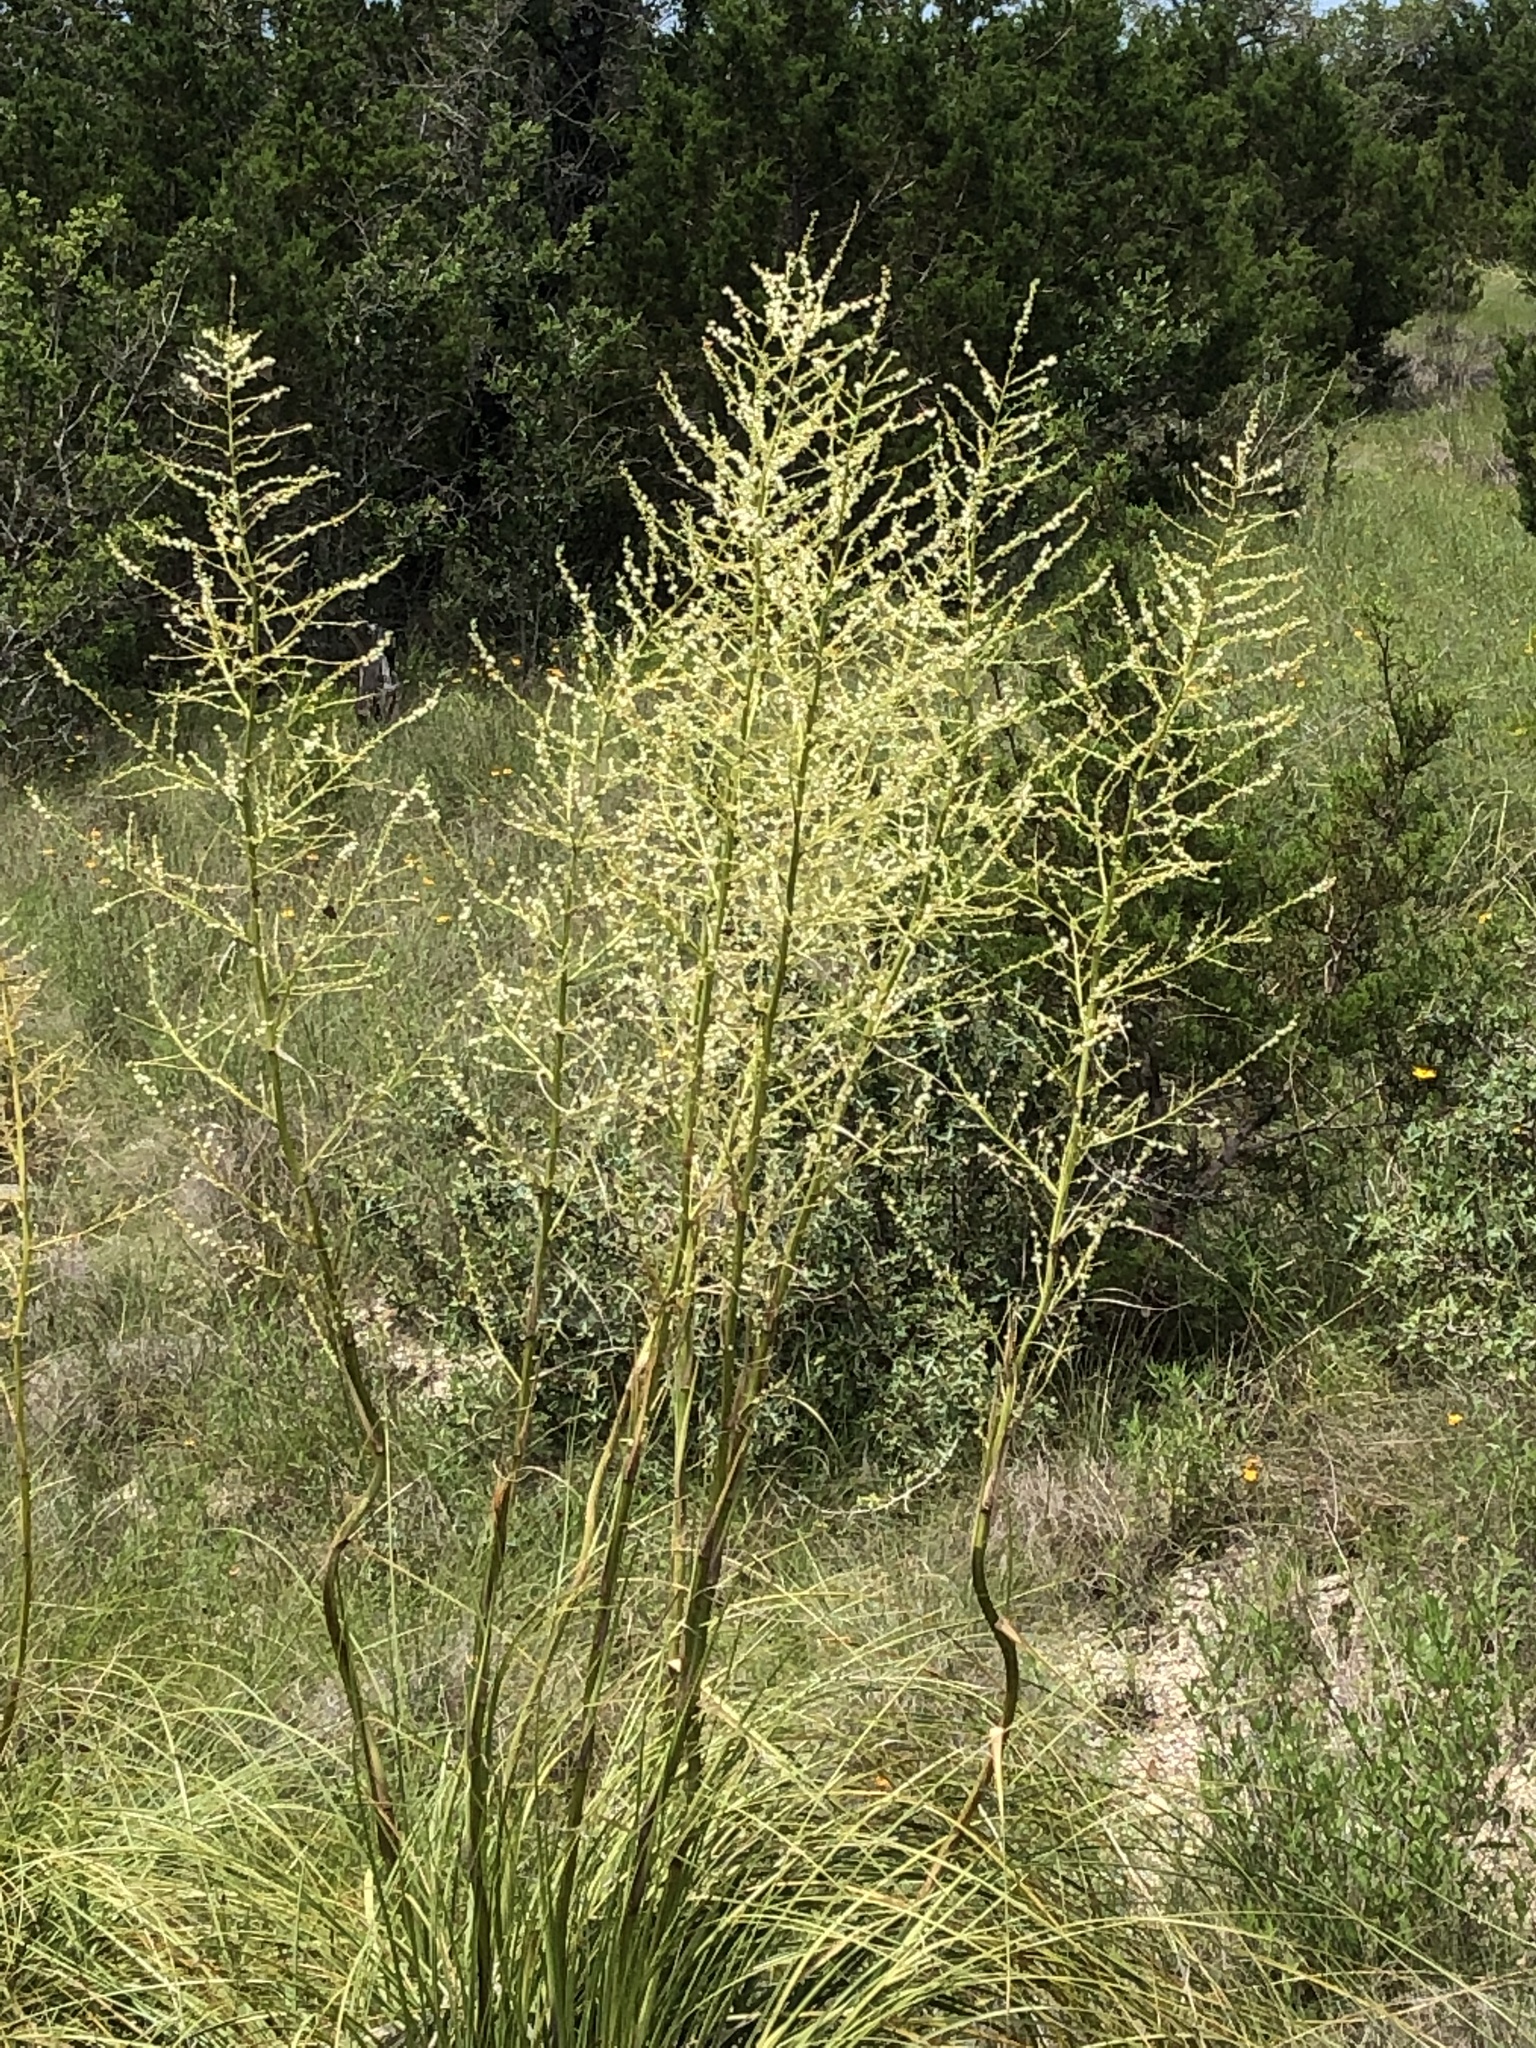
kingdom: Plantae
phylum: Tracheophyta
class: Liliopsida
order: Asparagales
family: Asparagaceae
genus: Nolina
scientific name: Nolina lindheimeriana
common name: Lindheimer's bear-grass
